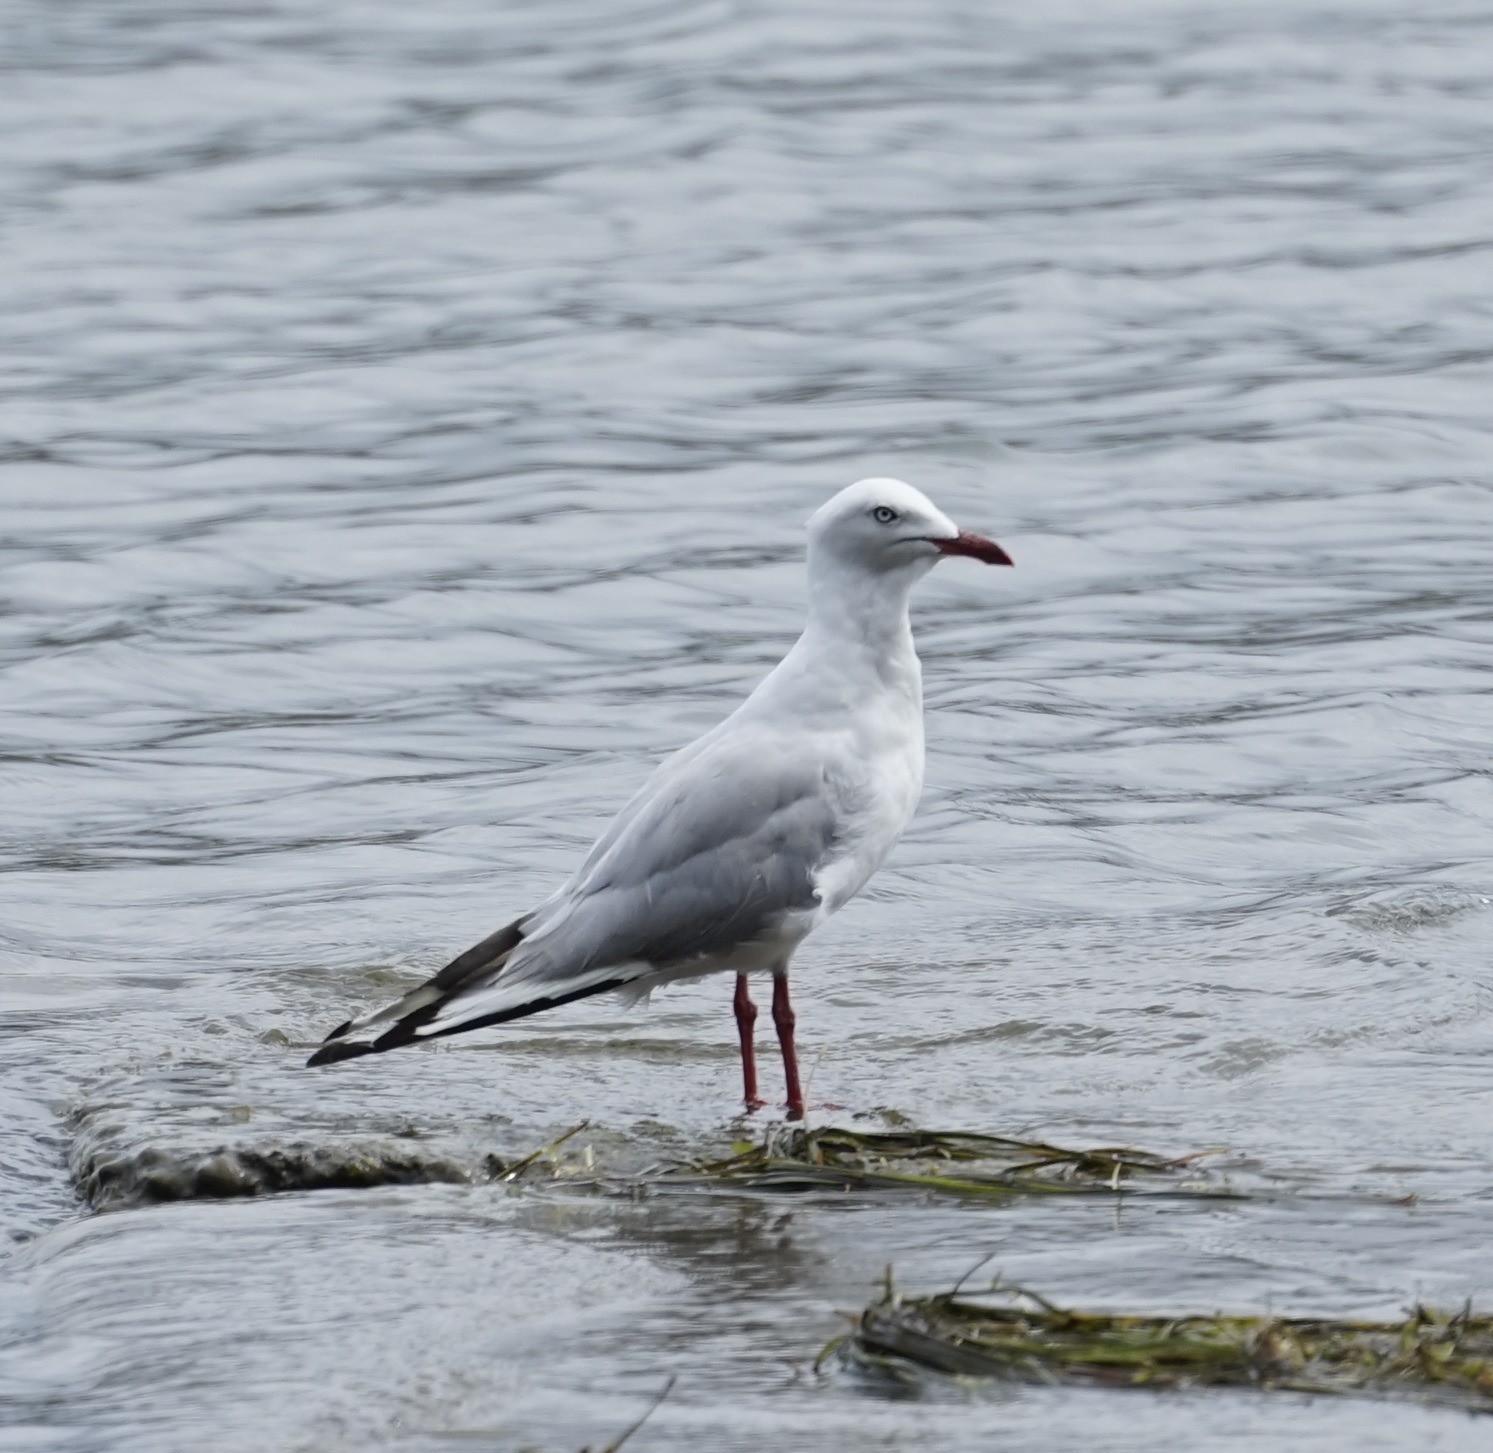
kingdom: Animalia
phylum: Chordata
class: Aves
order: Charadriiformes
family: Laridae
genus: Chroicocephalus
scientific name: Chroicocephalus novaehollandiae
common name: Silver gull
